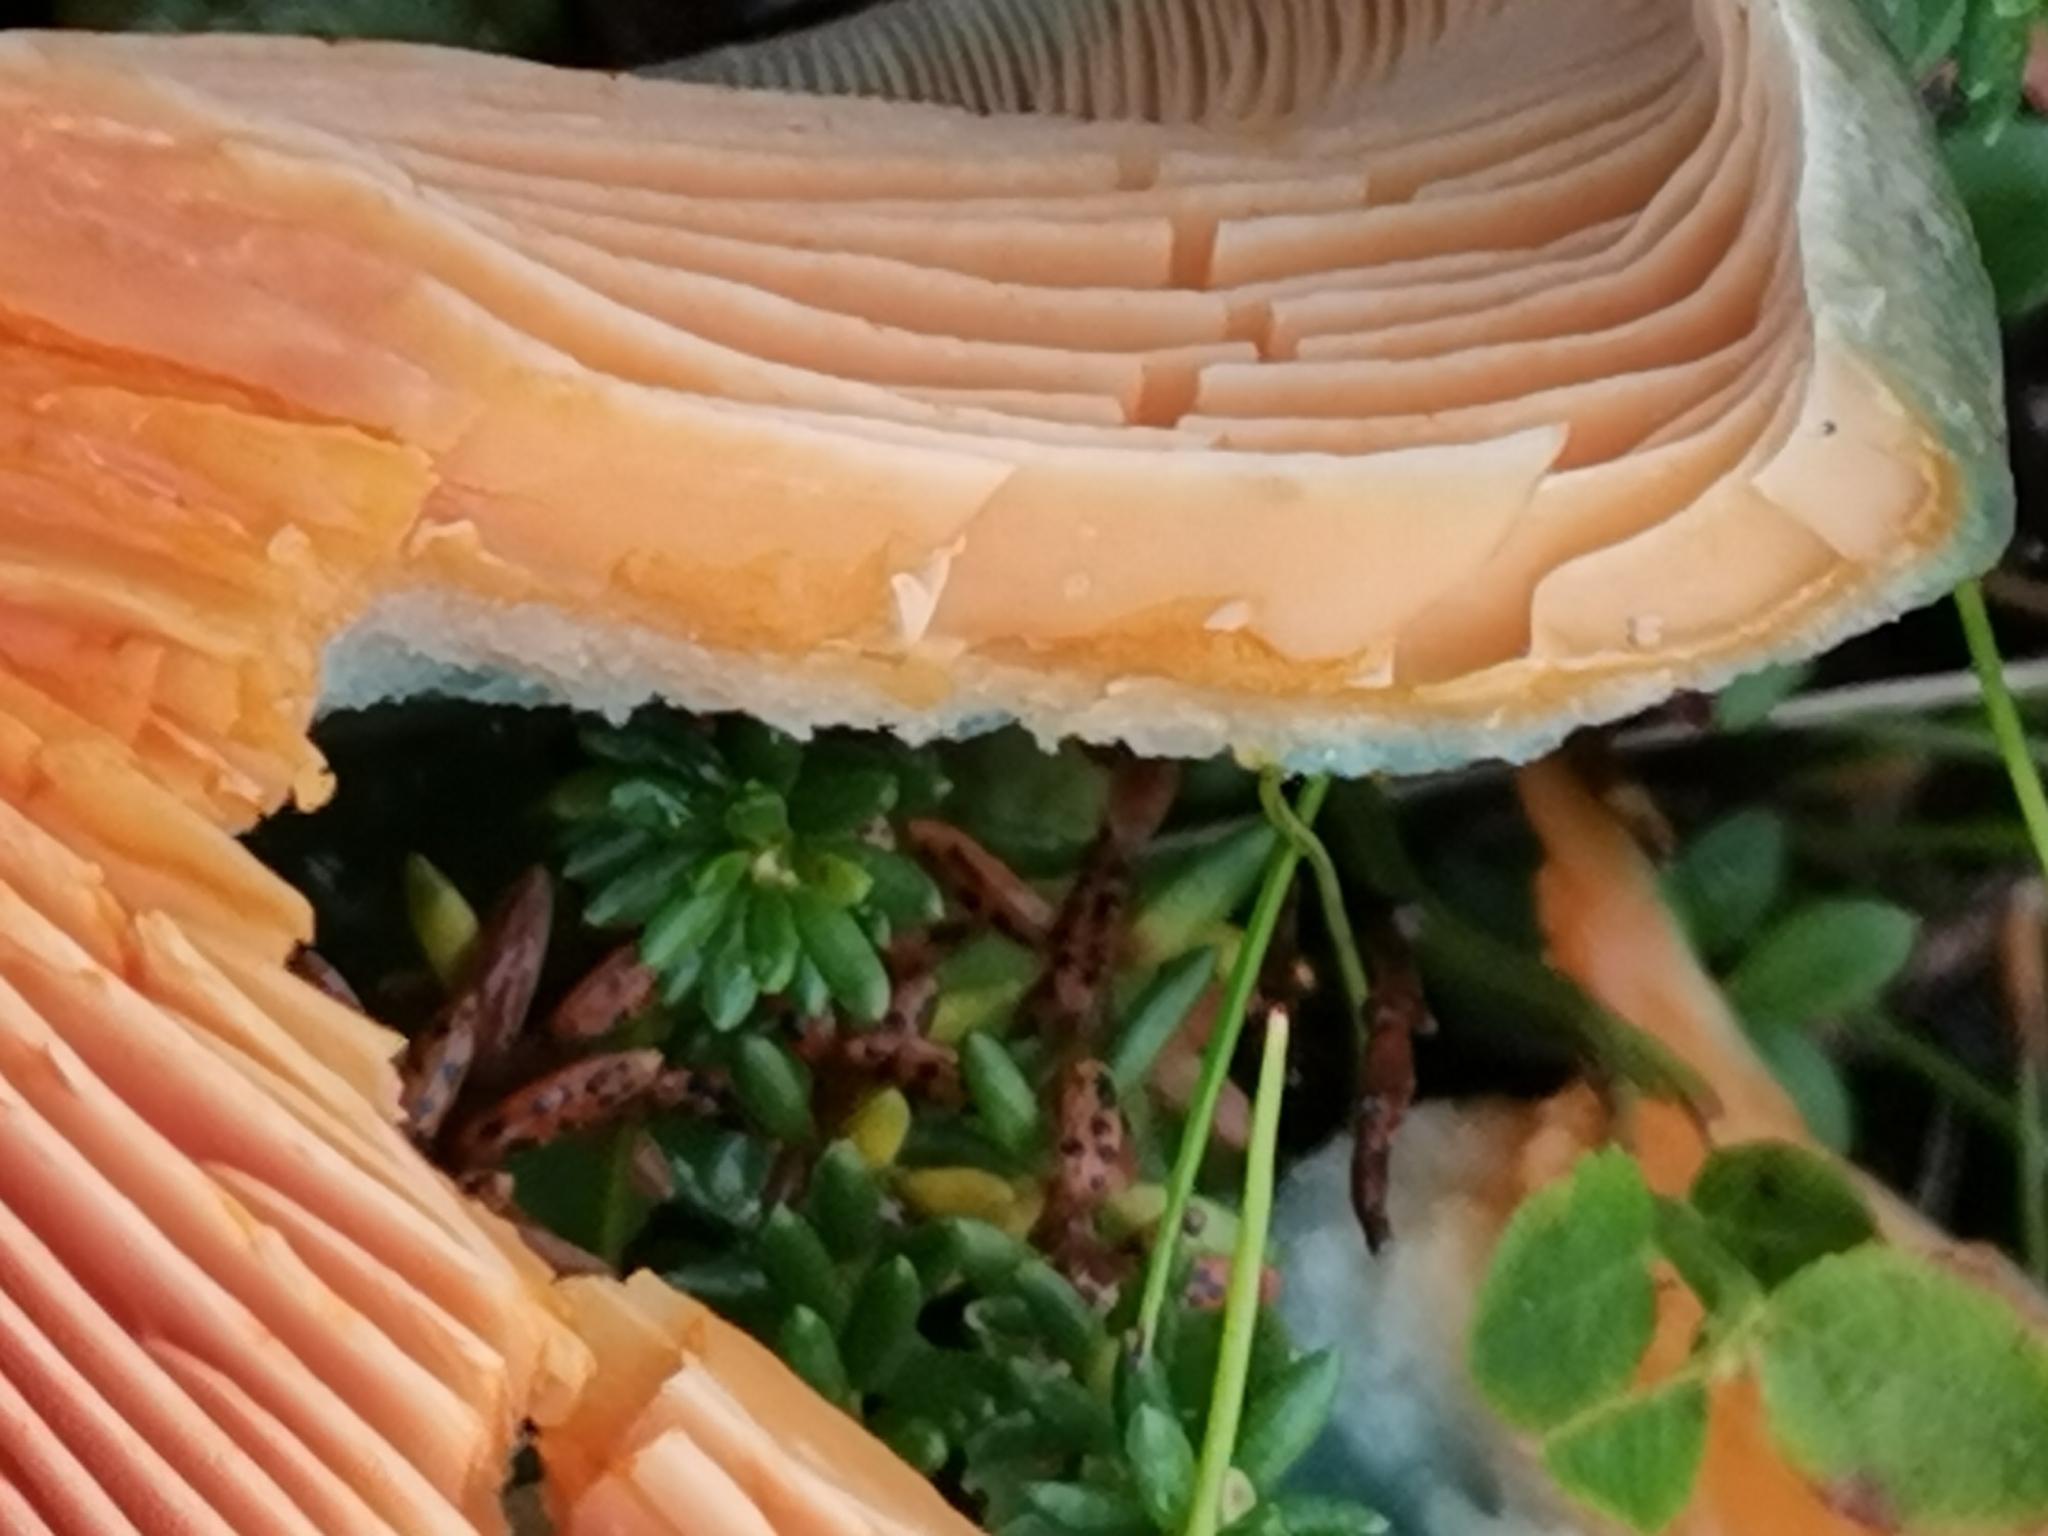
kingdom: Fungi
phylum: Basidiomycota
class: Agaricomycetes
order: Russulales
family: Russulaceae
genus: Lactarius
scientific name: Lactarius quieticolor
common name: Carrot milkcap
